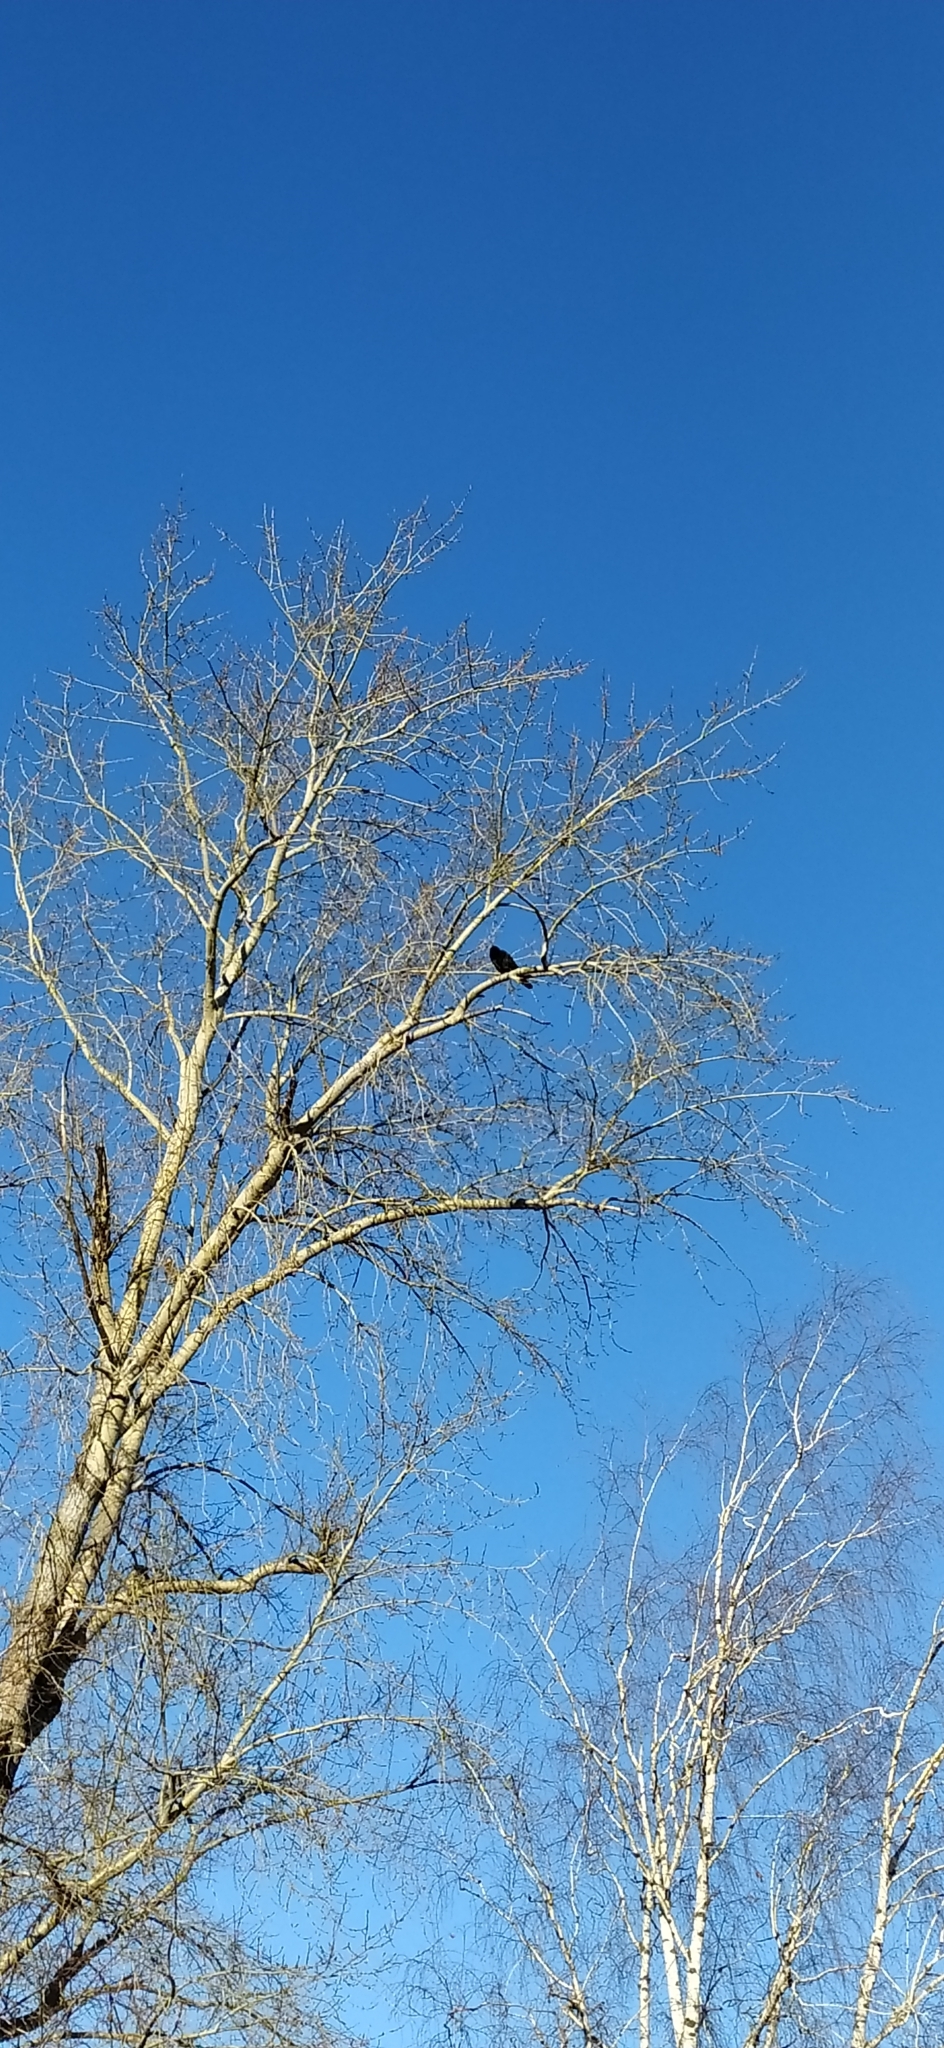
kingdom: Animalia
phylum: Chordata
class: Aves
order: Passeriformes
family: Corvidae
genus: Corvus
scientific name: Corvus corax
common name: Common raven
